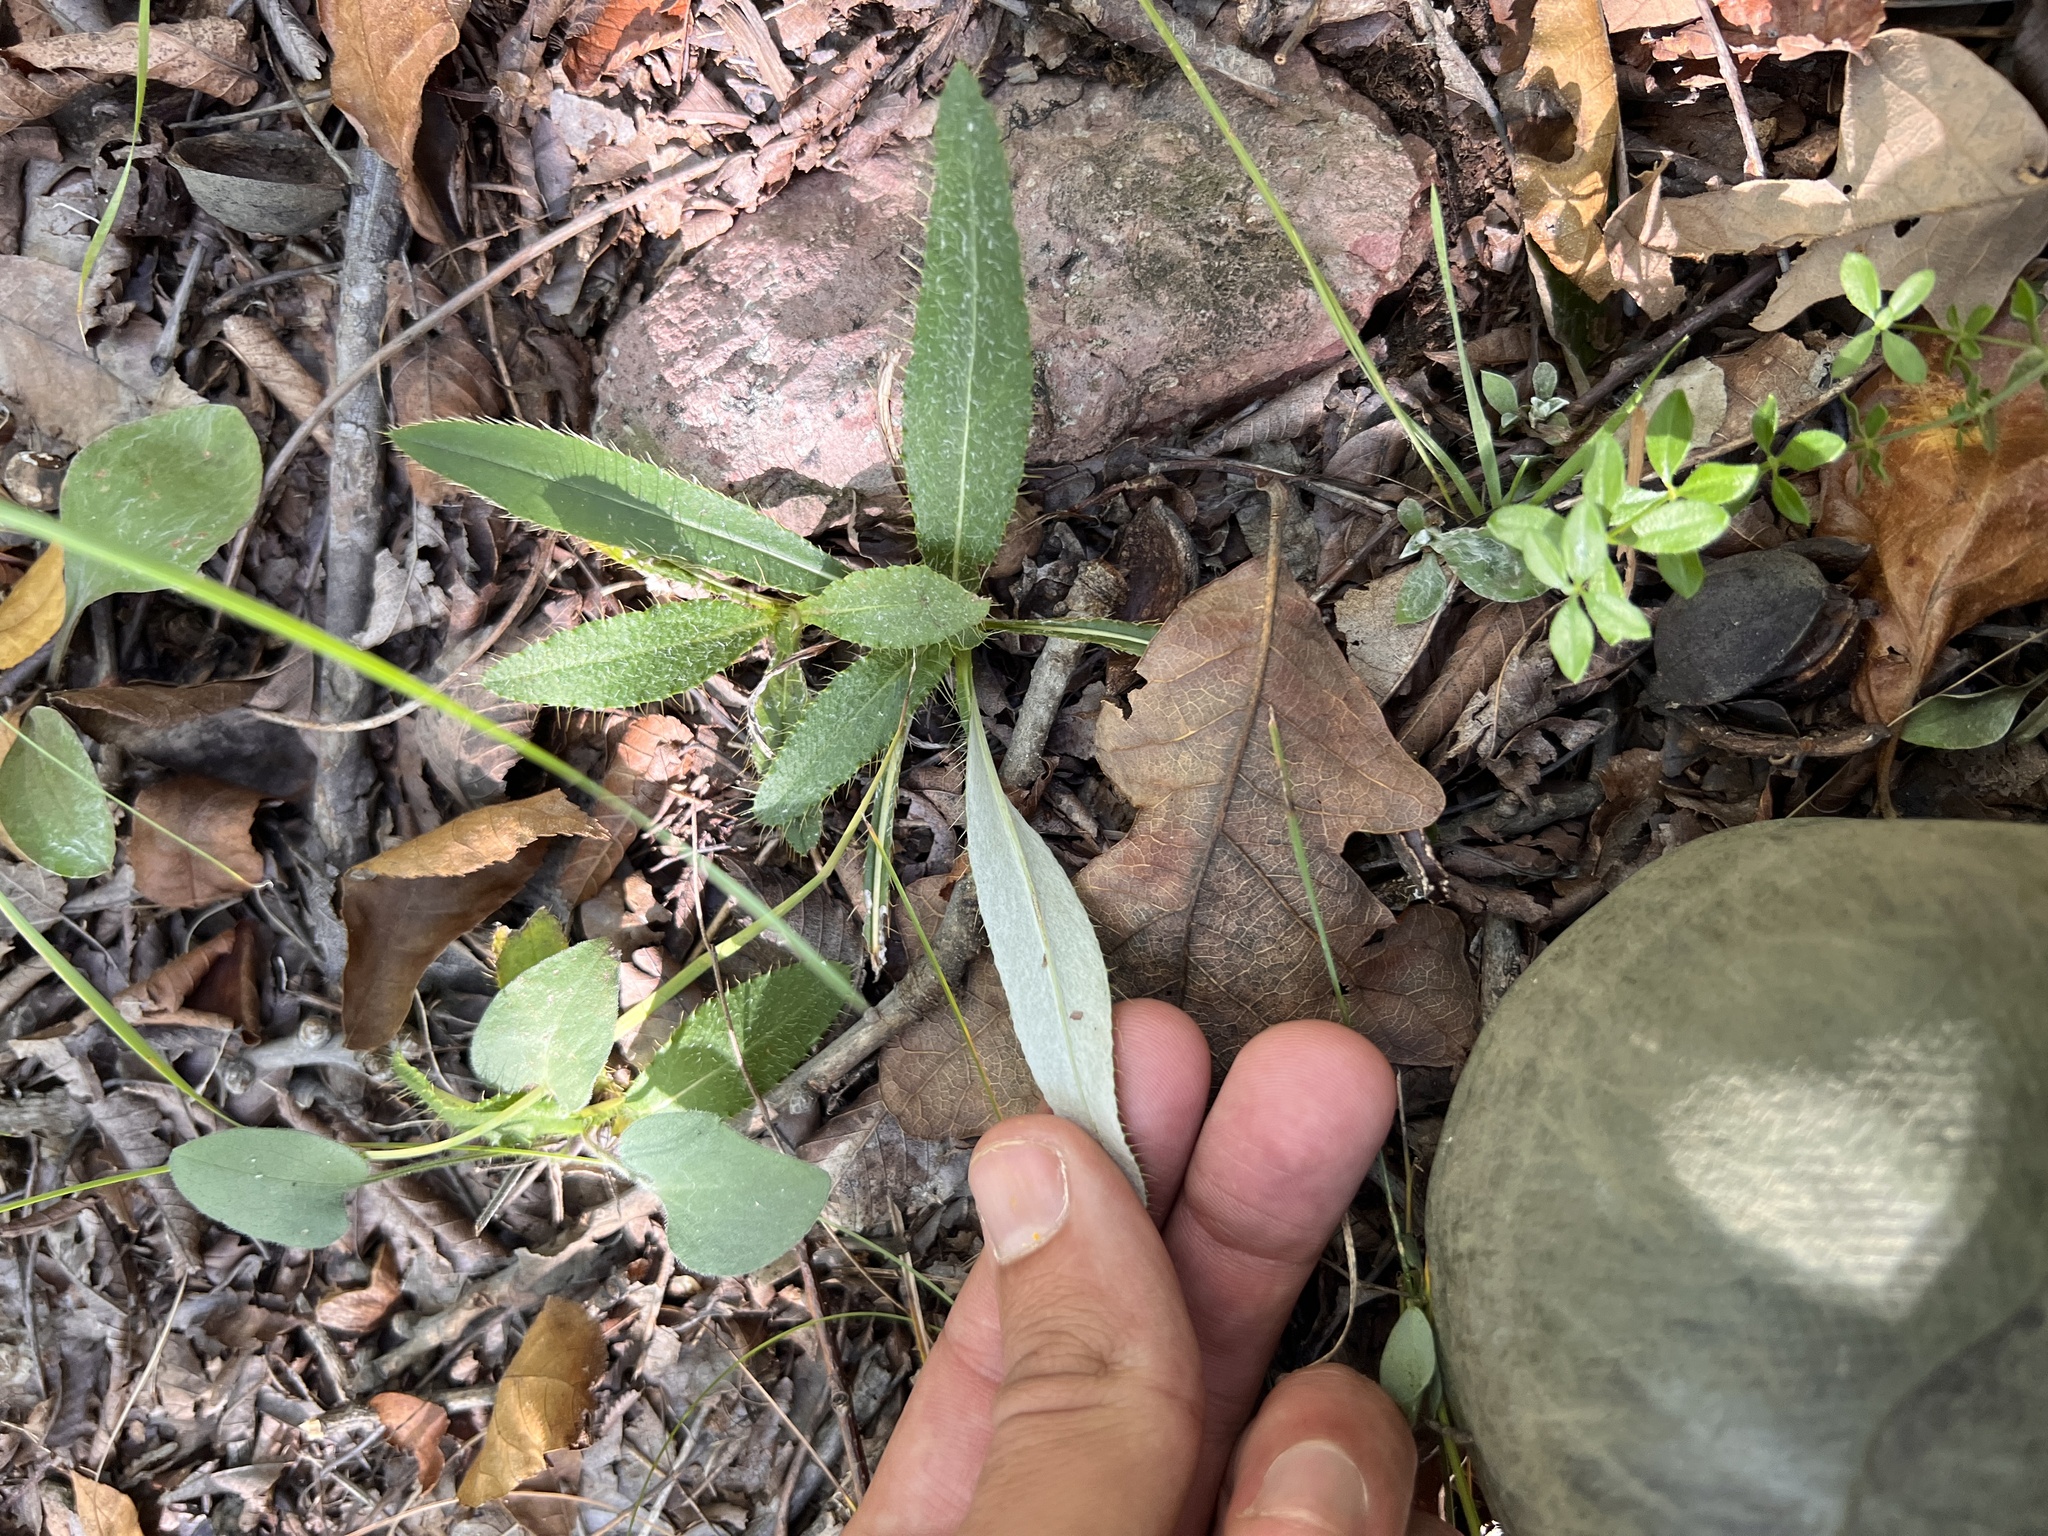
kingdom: Plantae
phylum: Tracheophyta
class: Magnoliopsida
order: Asterales
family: Asteraceae
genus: Cirsium
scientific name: Cirsium carolinianum
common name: Carolina thistle
